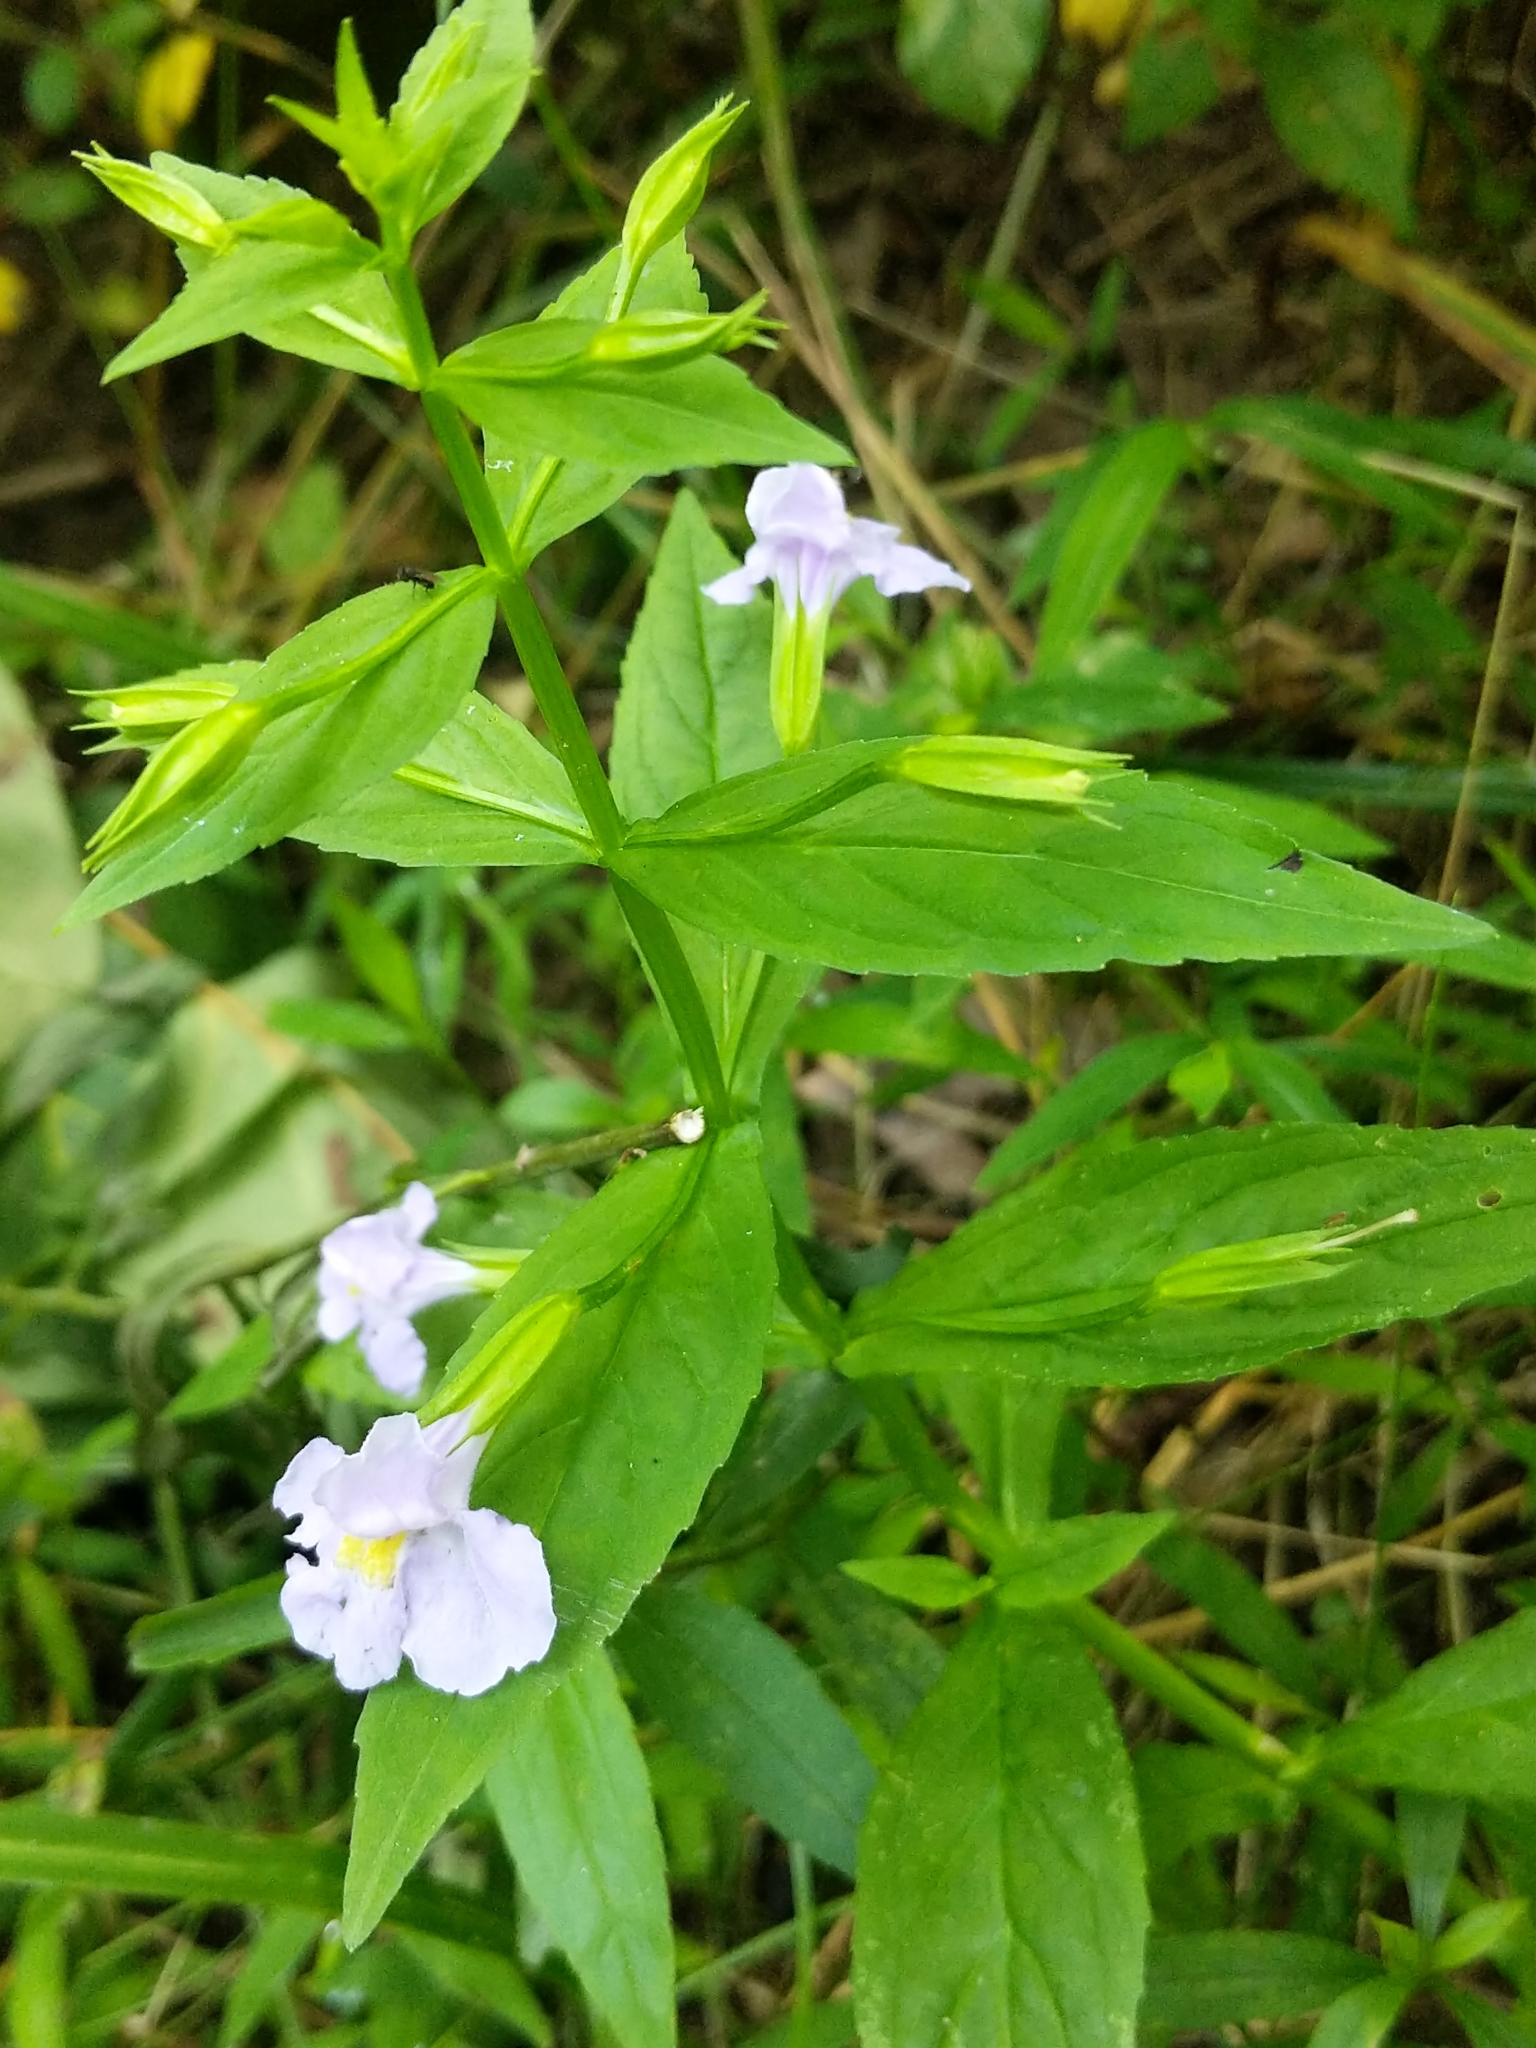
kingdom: Plantae
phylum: Tracheophyta
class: Magnoliopsida
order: Lamiales
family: Phrymaceae
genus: Mimulus
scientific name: Mimulus ringens
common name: Allegheny monkeyflower
